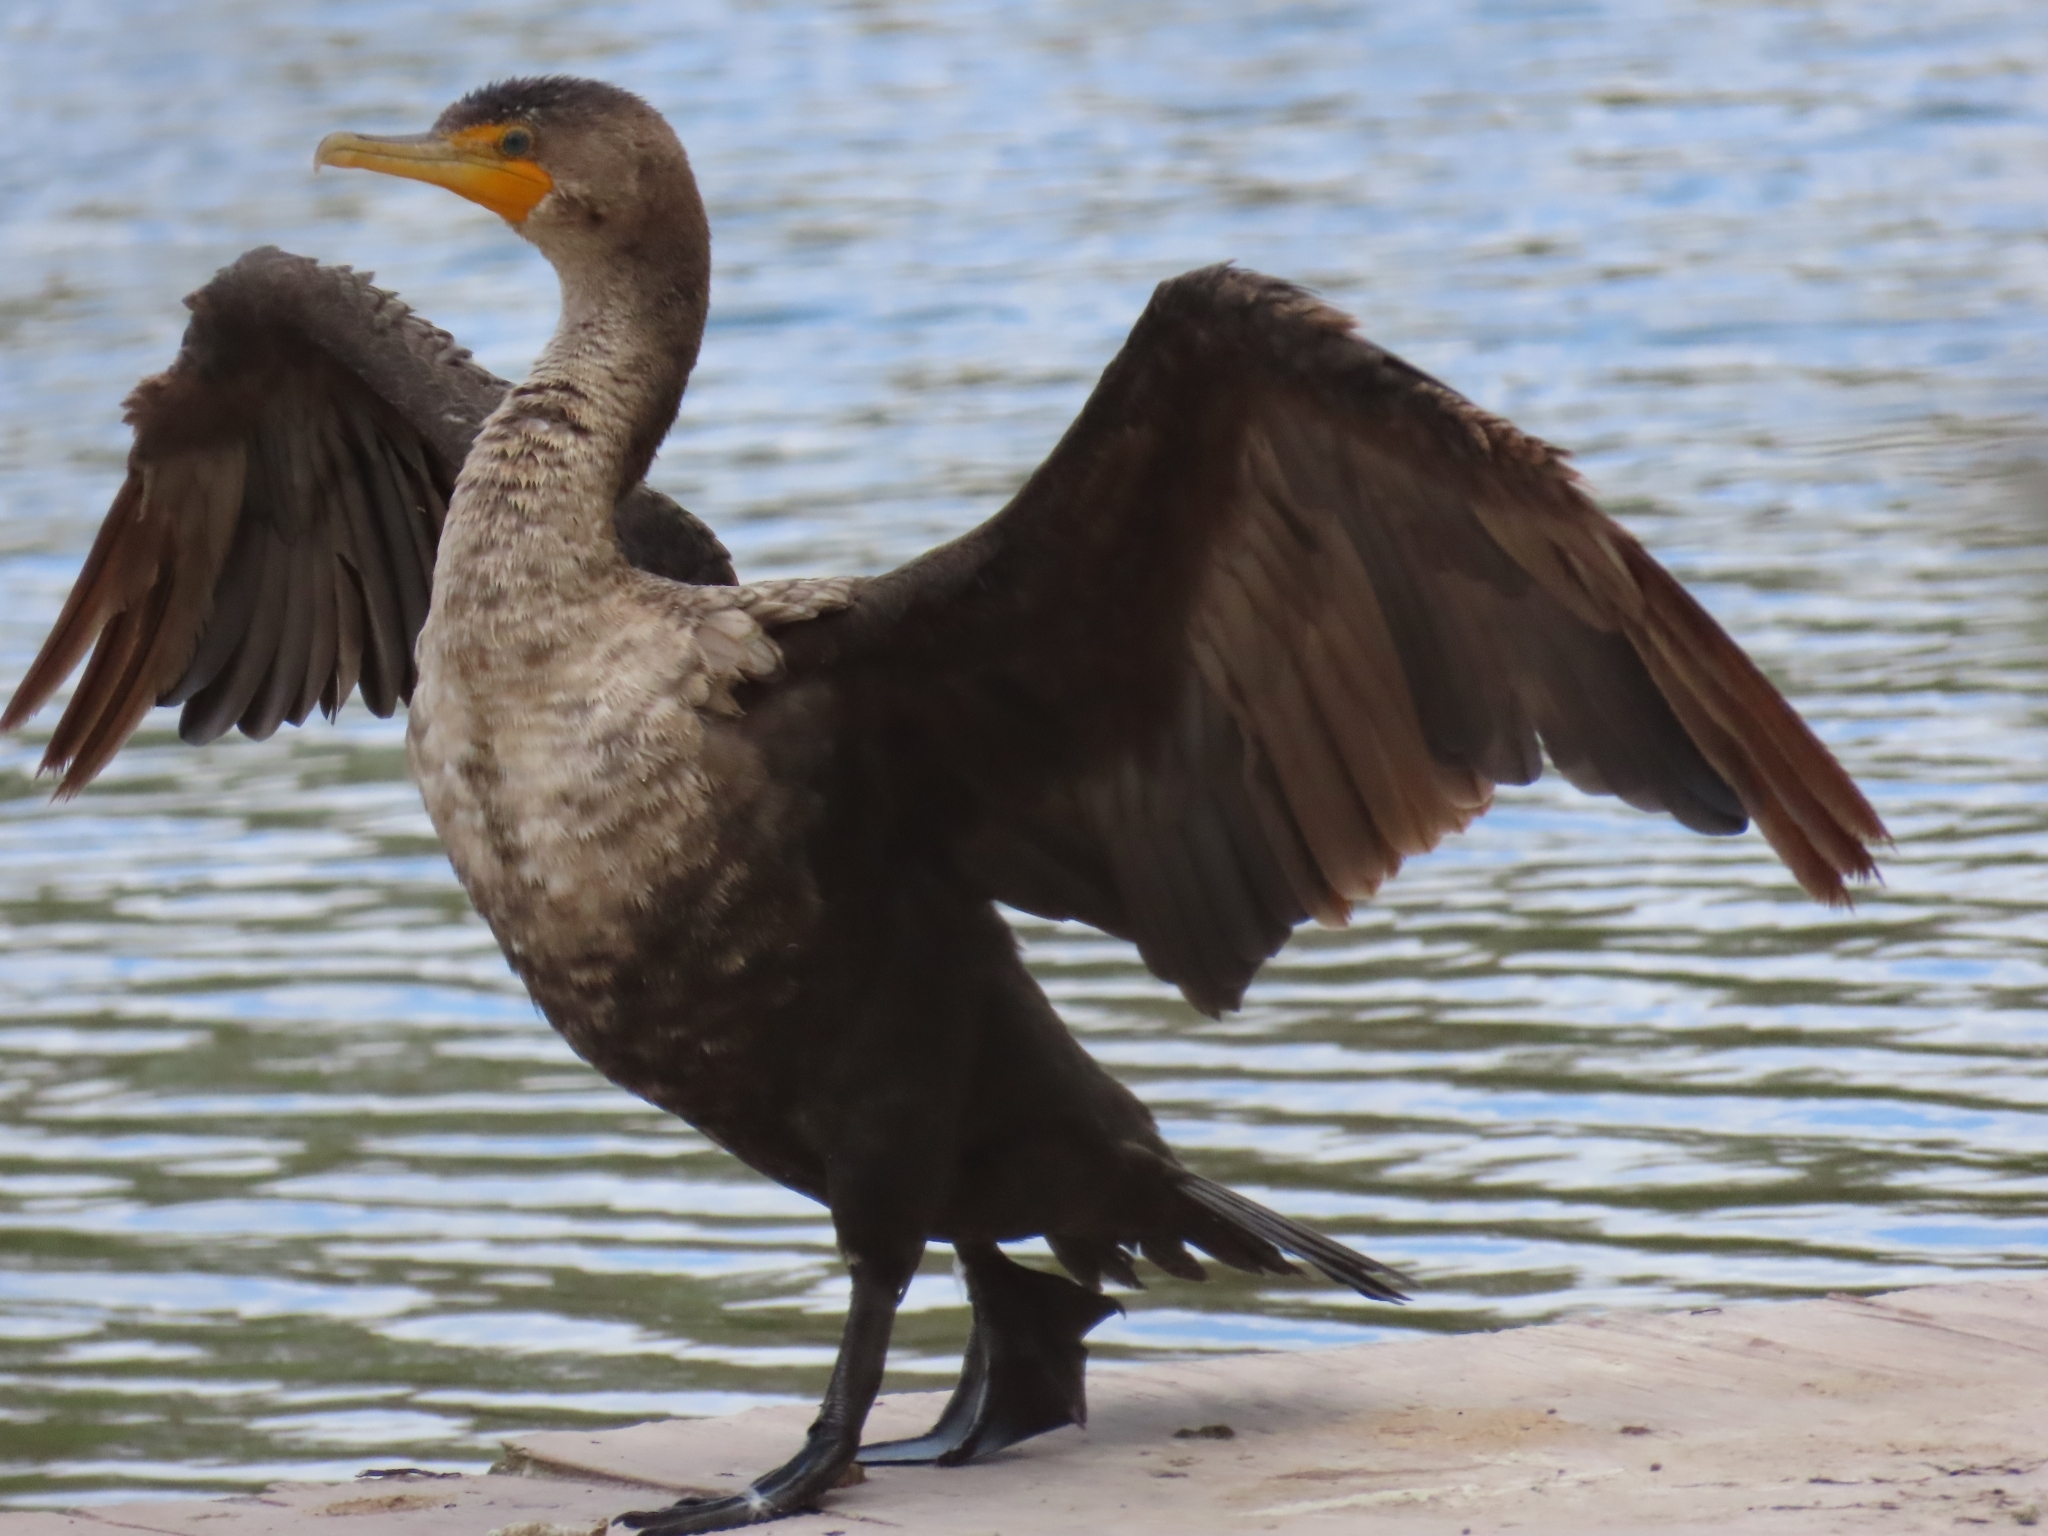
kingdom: Animalia
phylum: Chordata
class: Aves
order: Suliformes
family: Phalacrocoracidae
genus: Phalacrocorax
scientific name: Phalacrocorax auritus
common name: Double-crested cormorant
